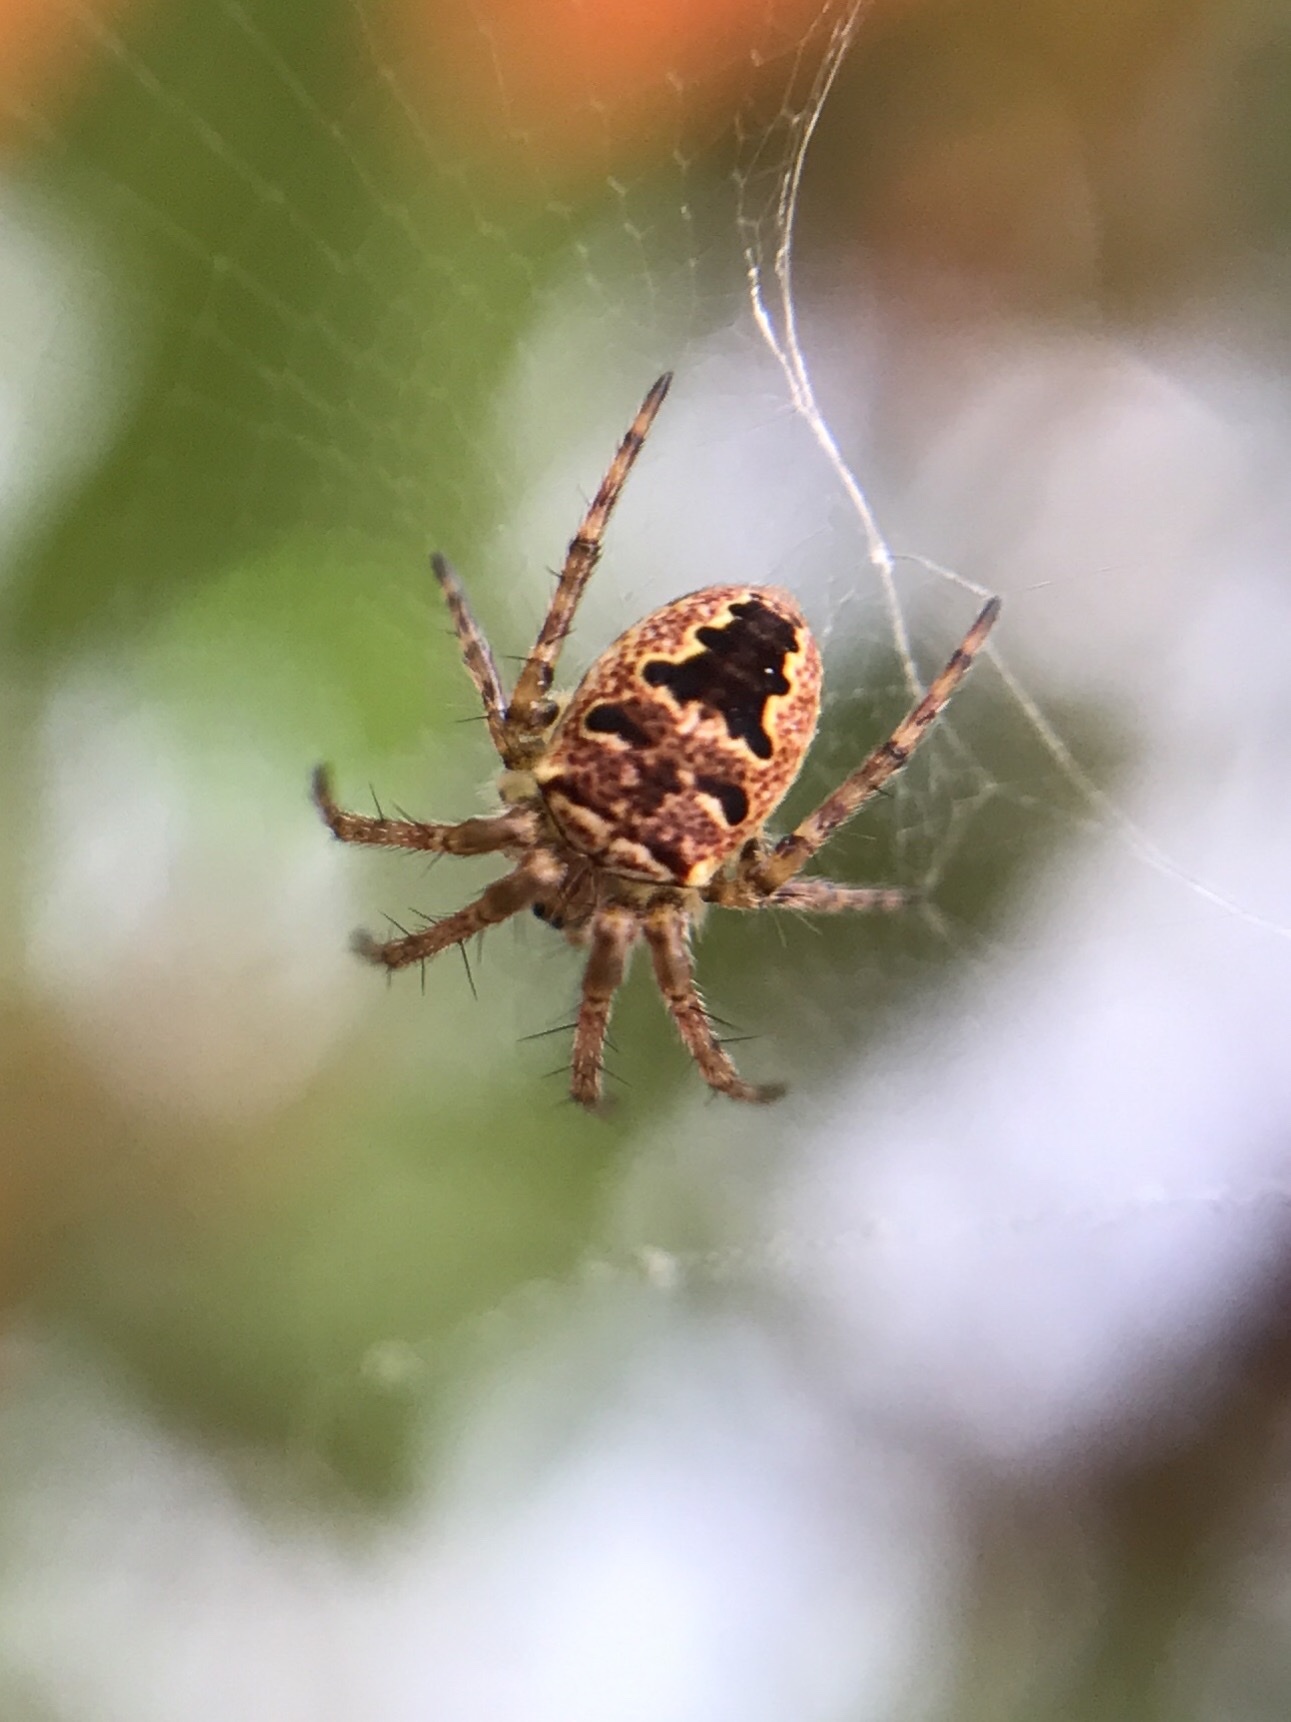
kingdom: Animalia
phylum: Arthropoda
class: Arachnida
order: Araneae
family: Araneidae
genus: Zilla
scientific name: Zilla diodia
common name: Zilla diodia
